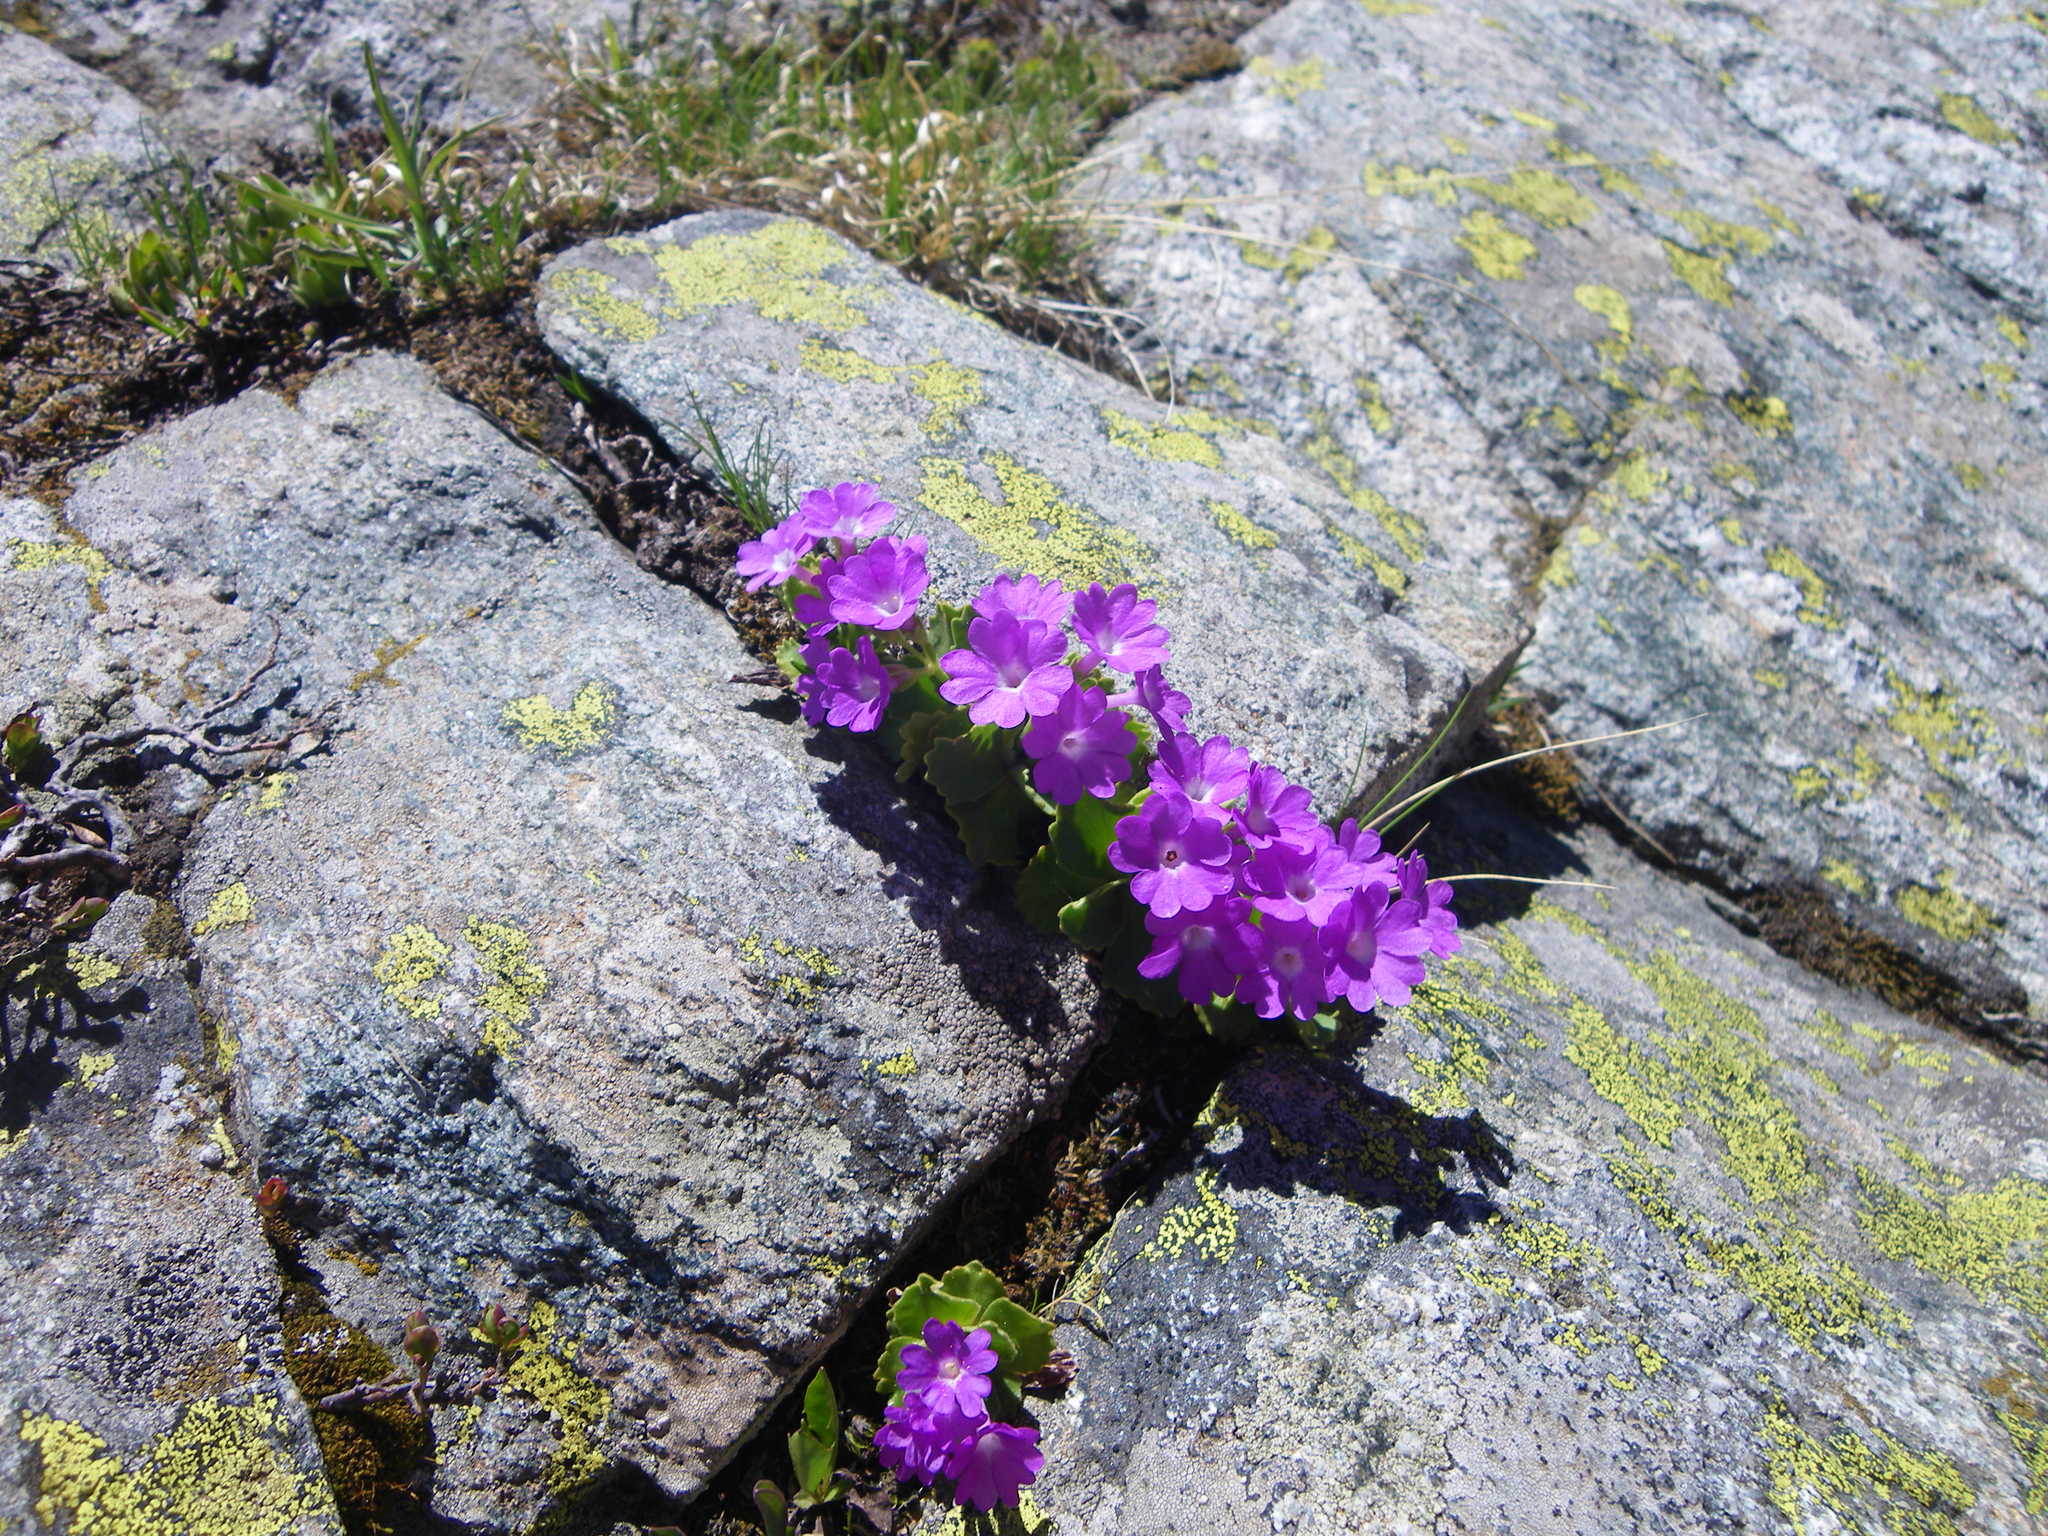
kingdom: Plantae
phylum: Tracheophyta
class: Magnoliopsida
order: Ericales
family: Primulaceae
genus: Primula
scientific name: Primula hirsuta
